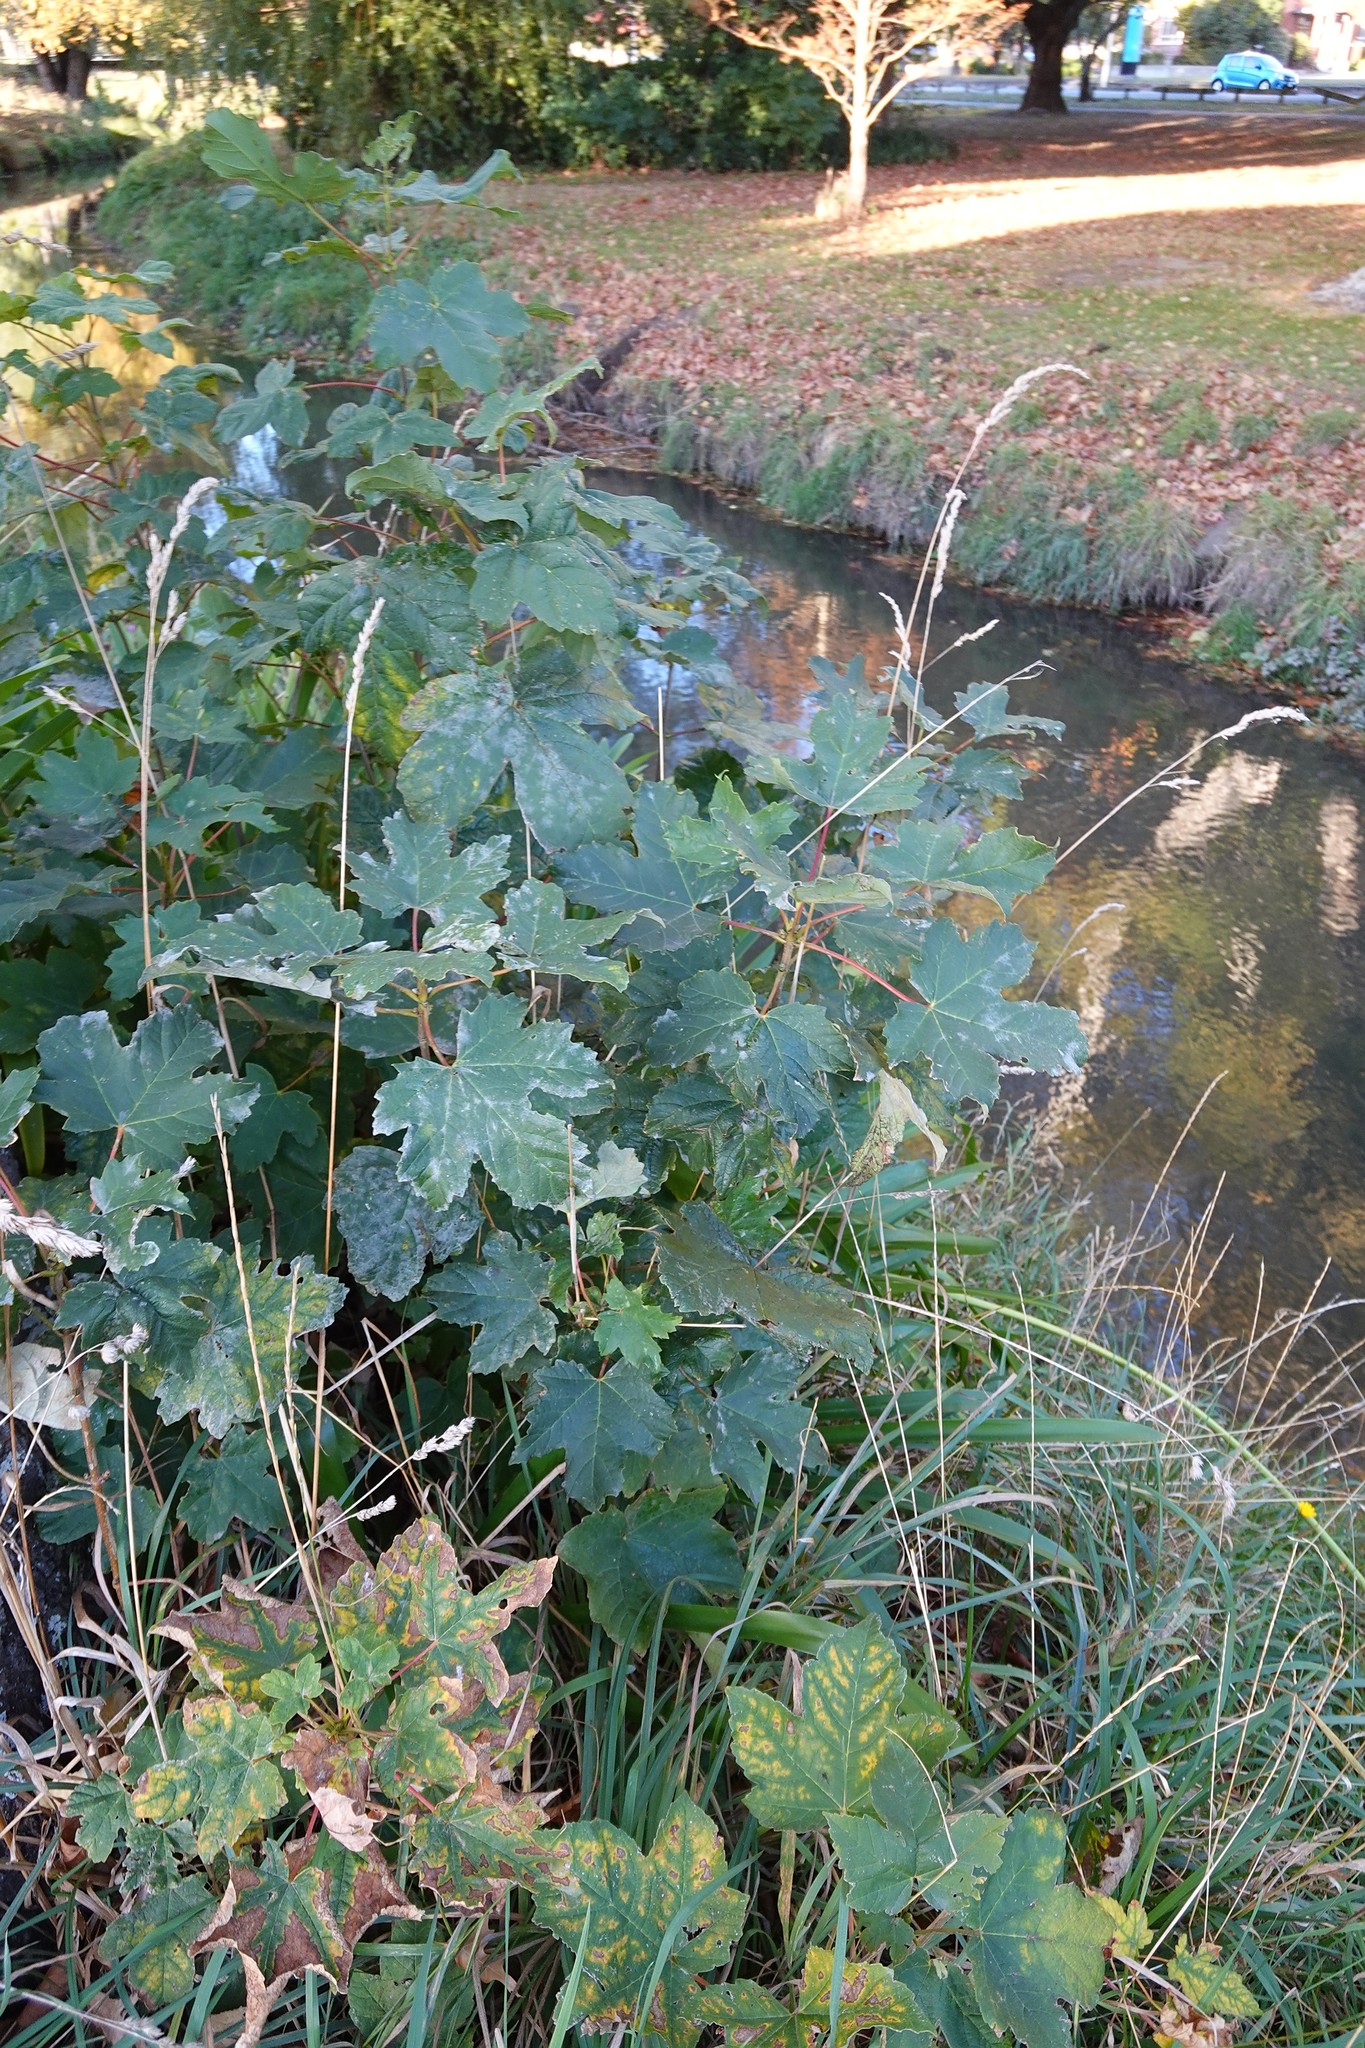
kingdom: Plantae
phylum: Tracheophyta
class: Magnoliopsida
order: Sapindales
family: Sapindaceae
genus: Acer
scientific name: Acer pseudoplatanus
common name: Sycamore
